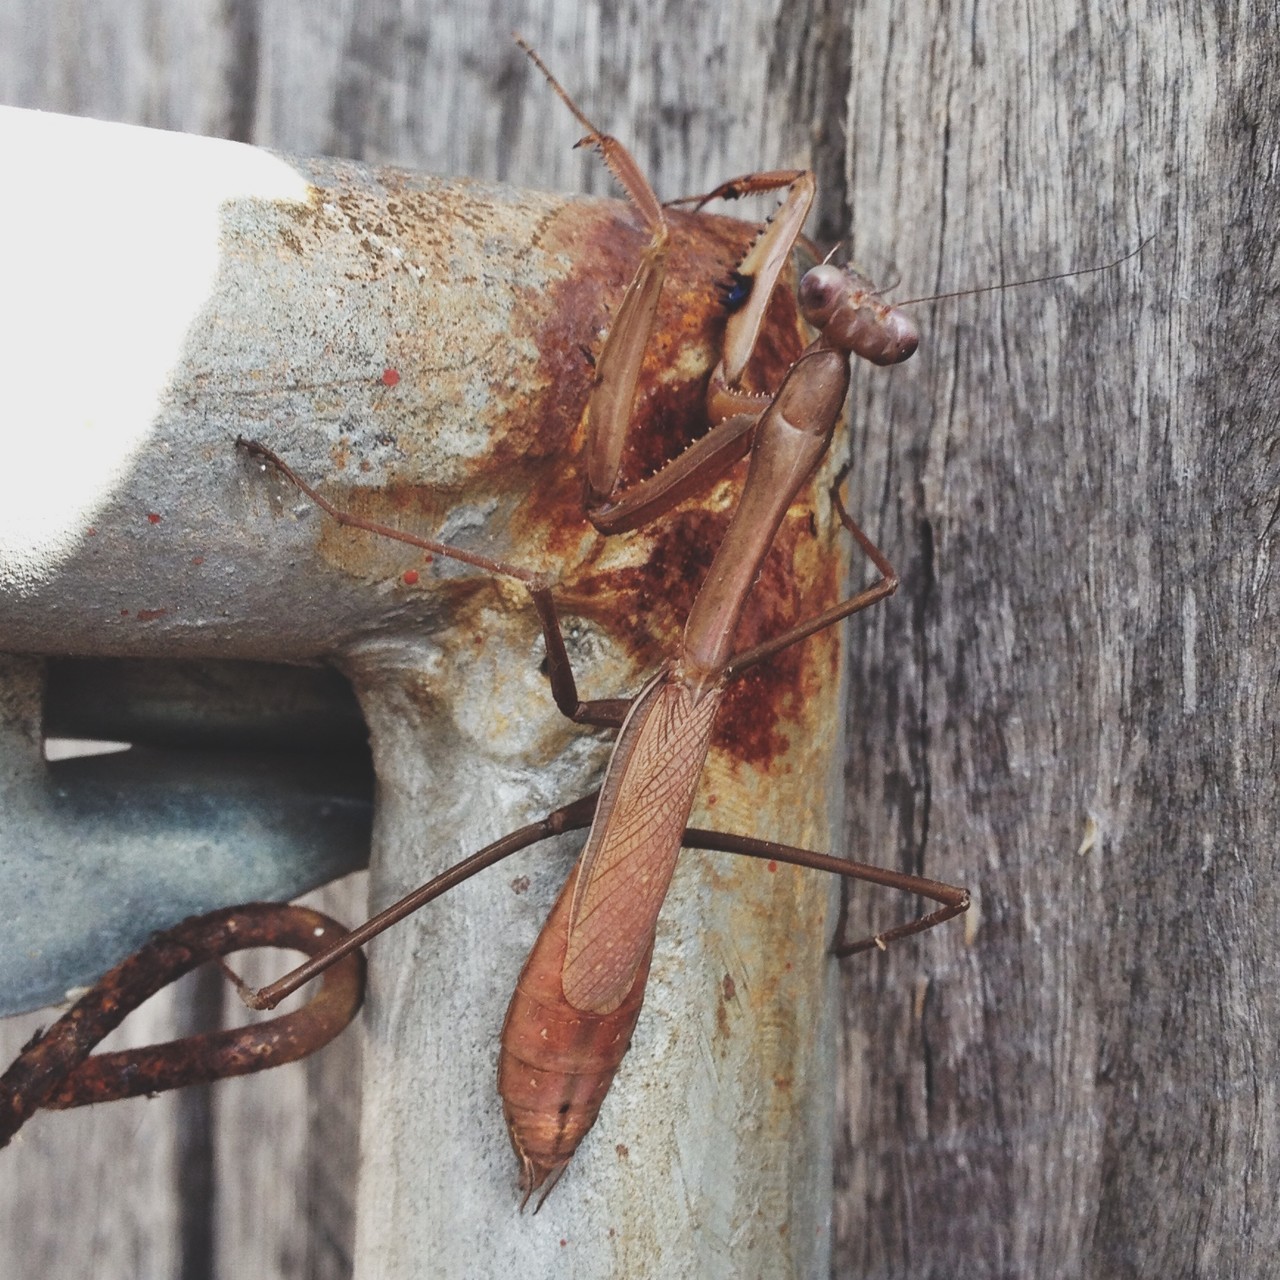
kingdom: Animalia
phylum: Arthropoda
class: Insecta
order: Mantodea
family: Mantidae
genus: Pseudomantis
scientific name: Pseudomantis albofimbriata
